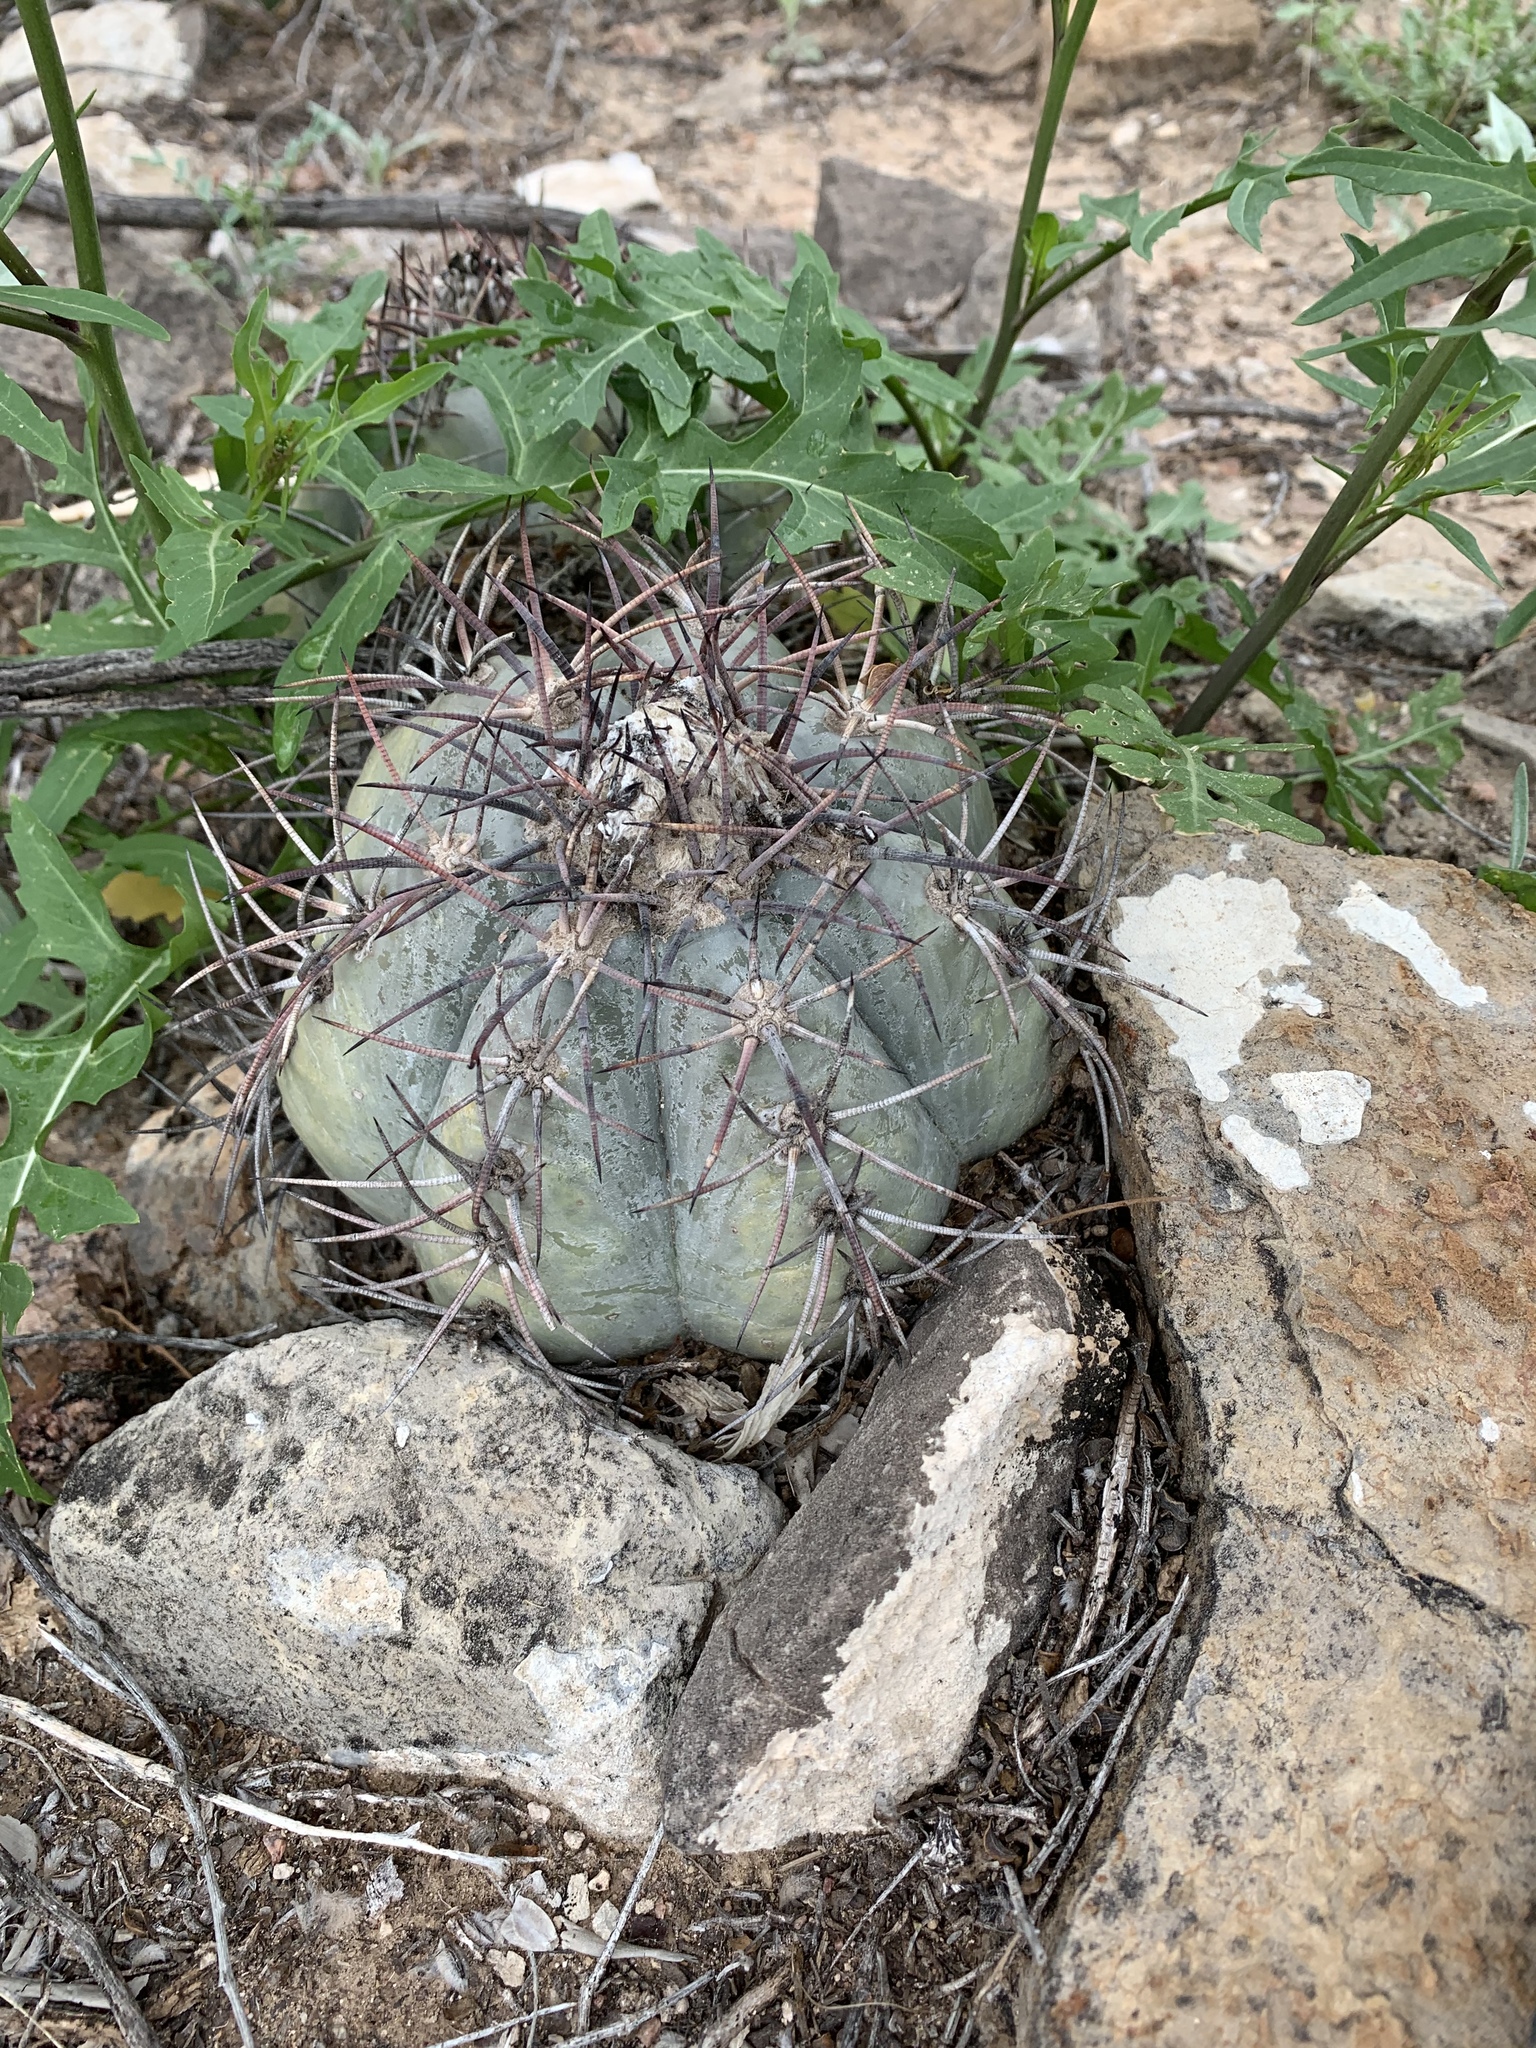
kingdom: Plantae
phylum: Tracheophyta
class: Magnoliopsida
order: Caryophyllales
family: Cactaceae
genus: Echinocactus
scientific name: Echinocactus horizonthalonius
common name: Devilshead
